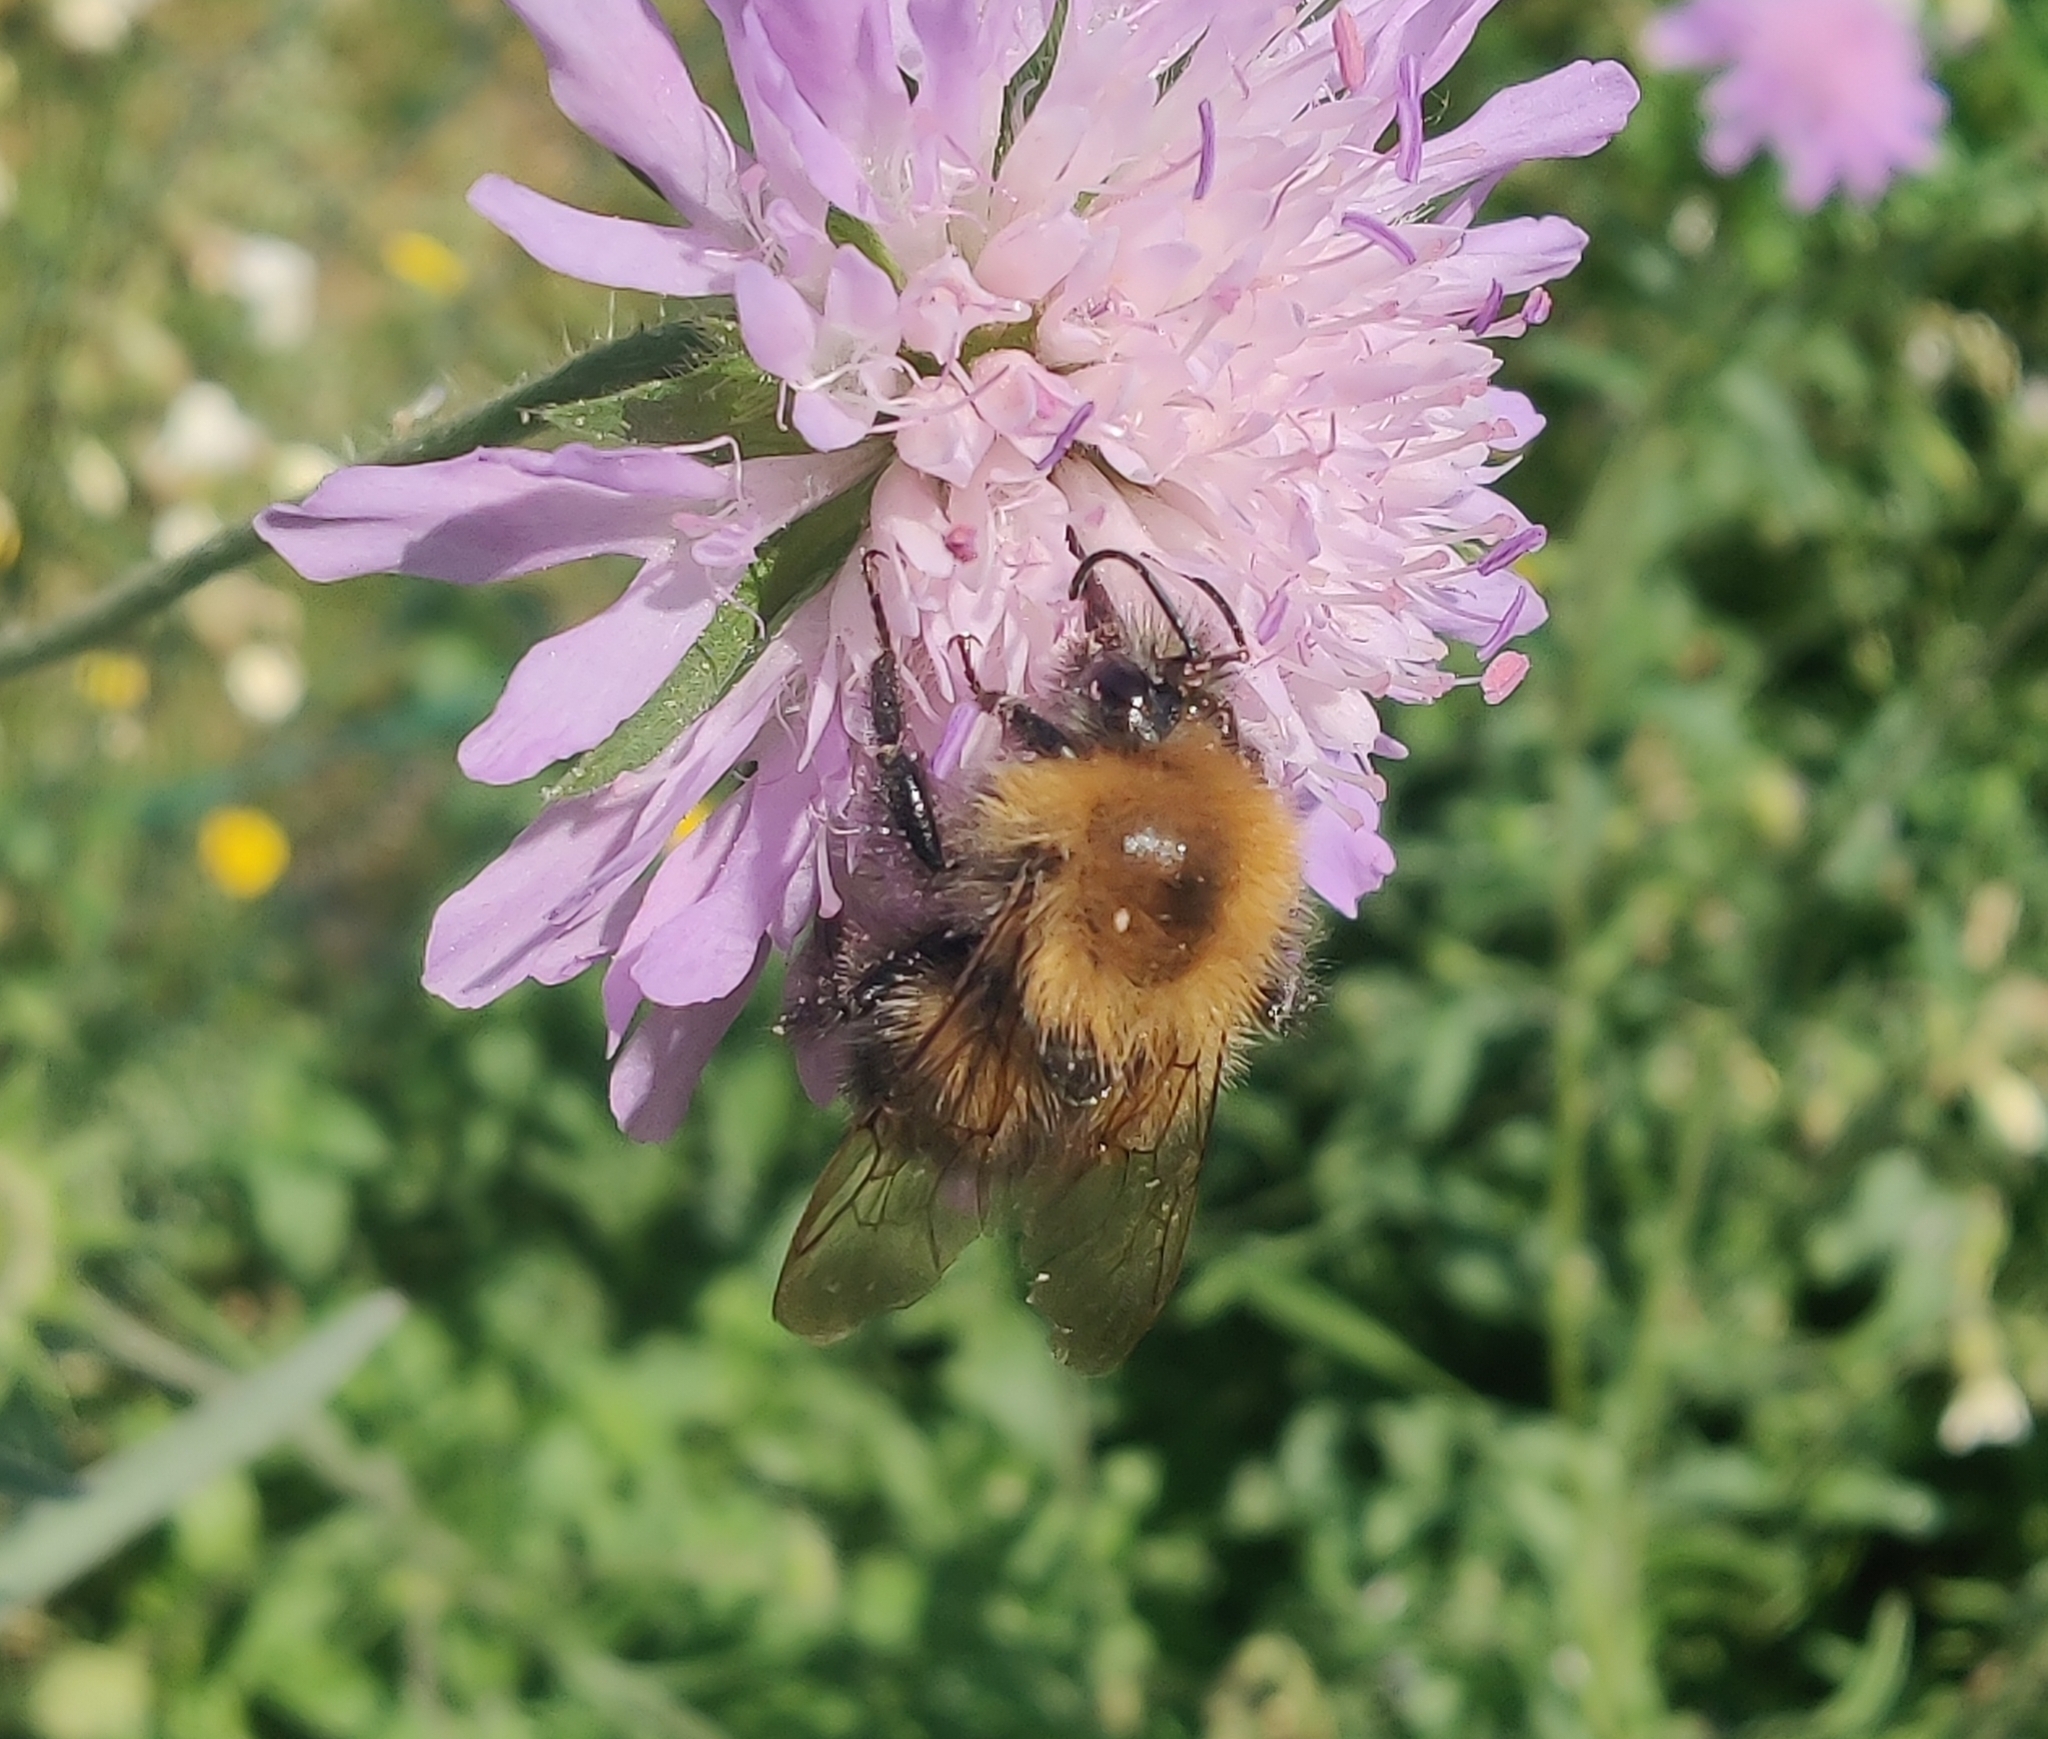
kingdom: Animalia
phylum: Arthropoda
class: Insecta
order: Hymenoptera
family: Apidae
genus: Bombus
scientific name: Bombus hypnorum
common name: New garden bumblebee
